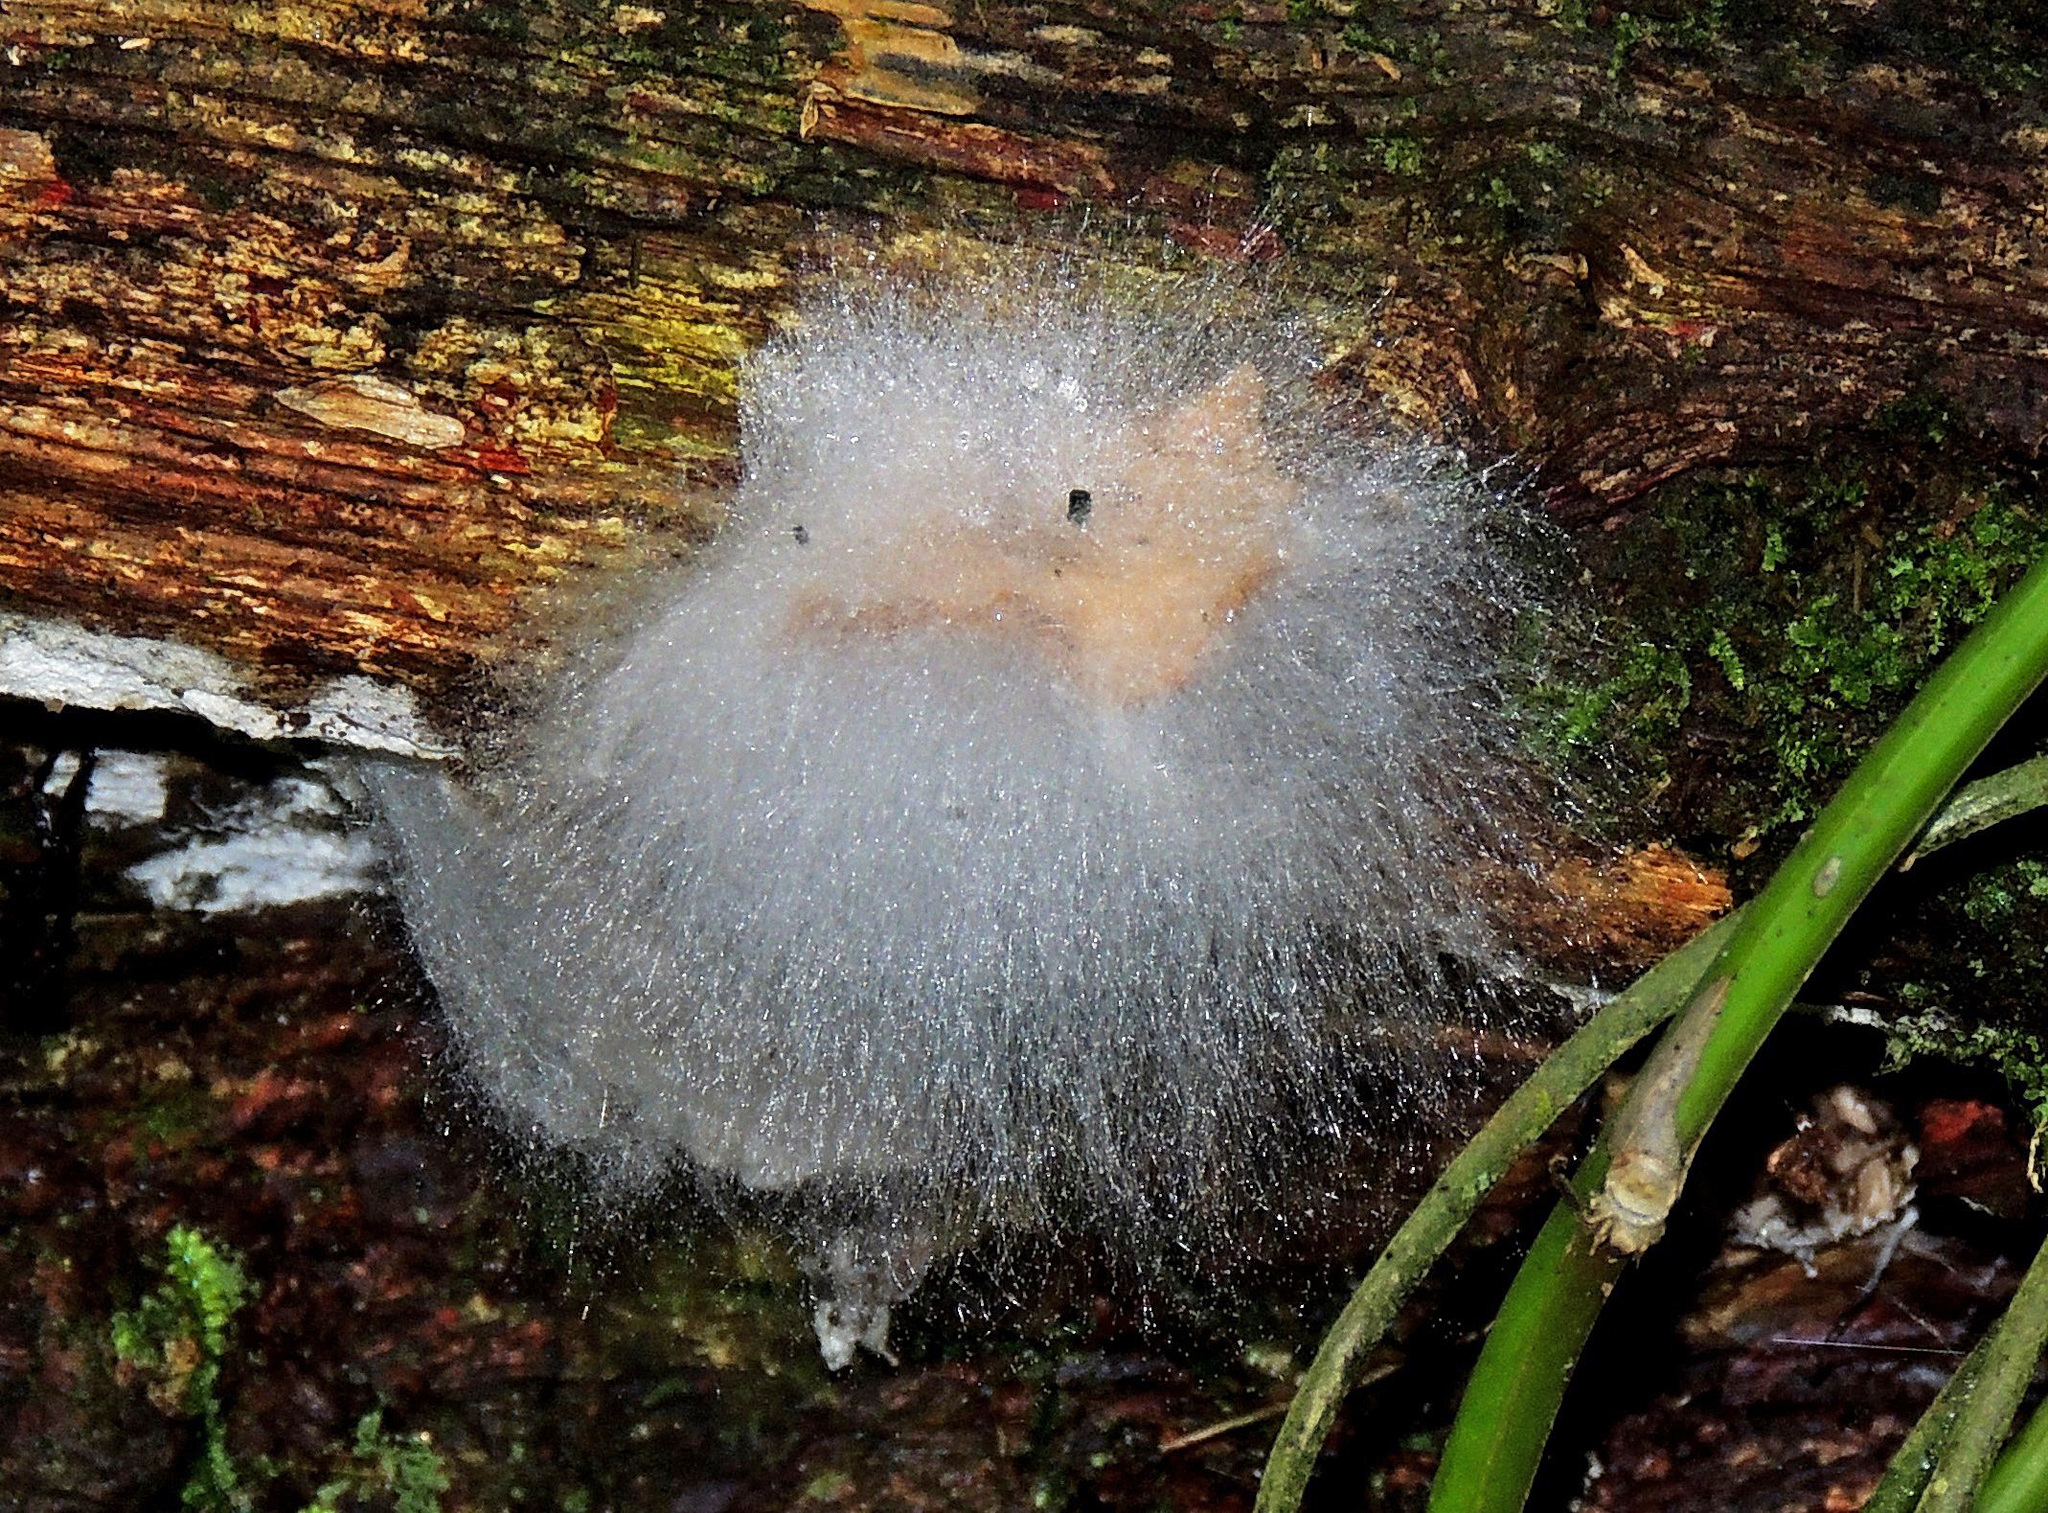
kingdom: Fungi
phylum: Mucoromycota
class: Mucoromycetes
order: Mucorales
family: Rhizopodaceae
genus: Syzygites
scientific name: Syzygites megalocarpus
